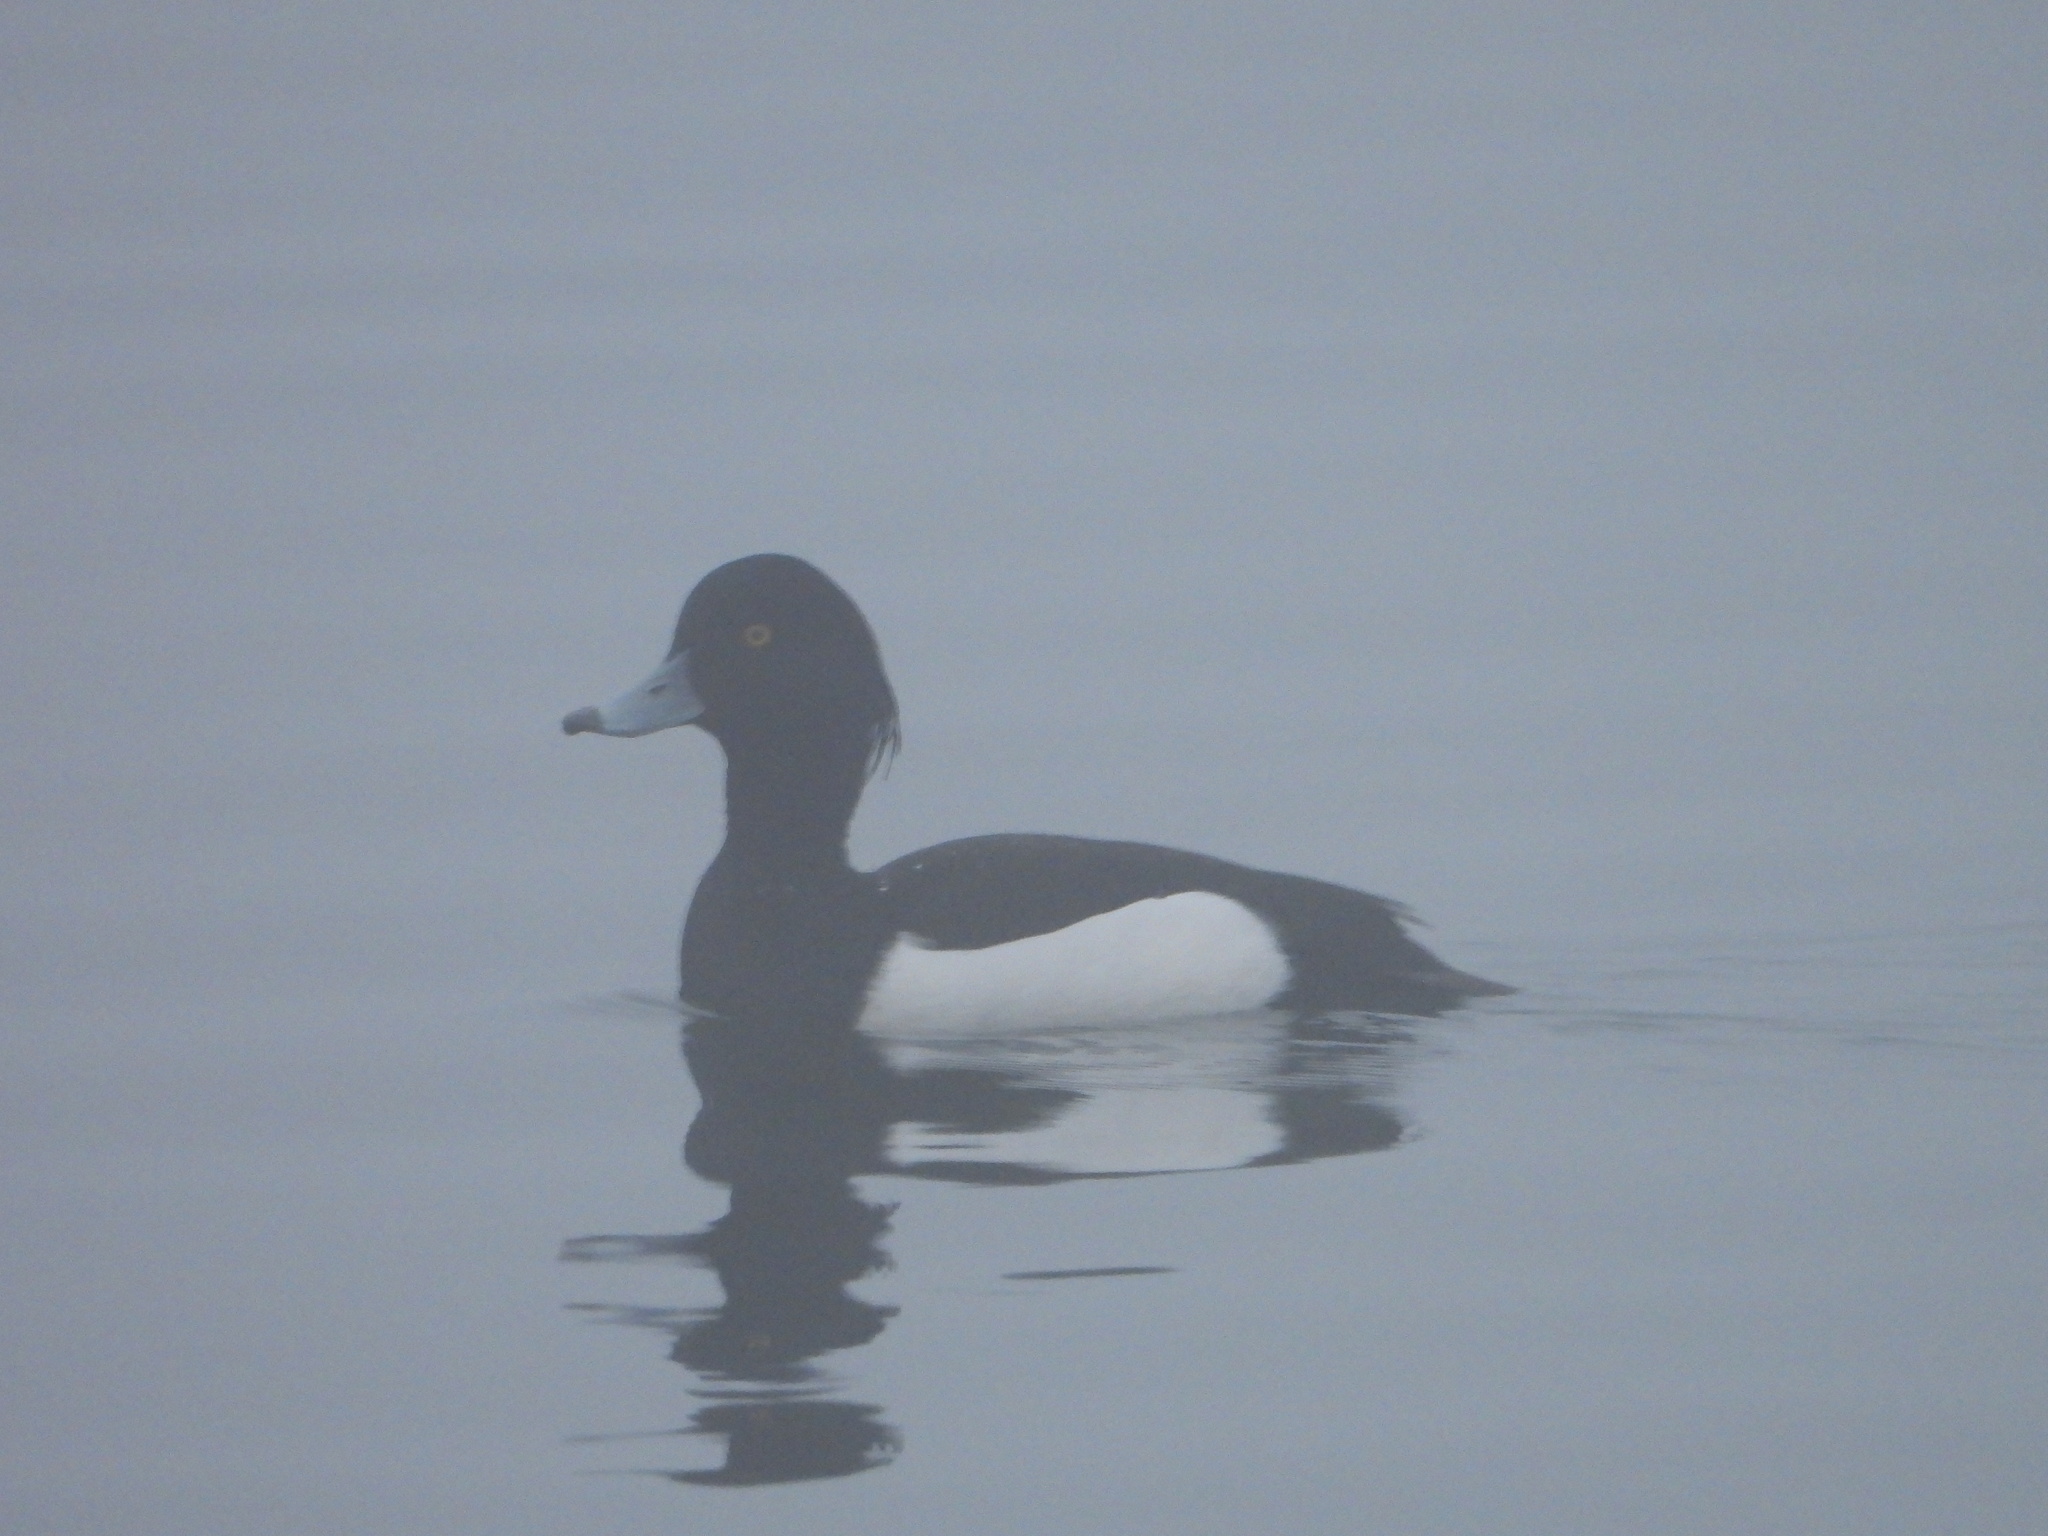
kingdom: Animalia
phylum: Chordata
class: Aves
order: Anseriformes
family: Anatidae
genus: Aythya
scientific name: Aythya fuligula
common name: Tufted duck
